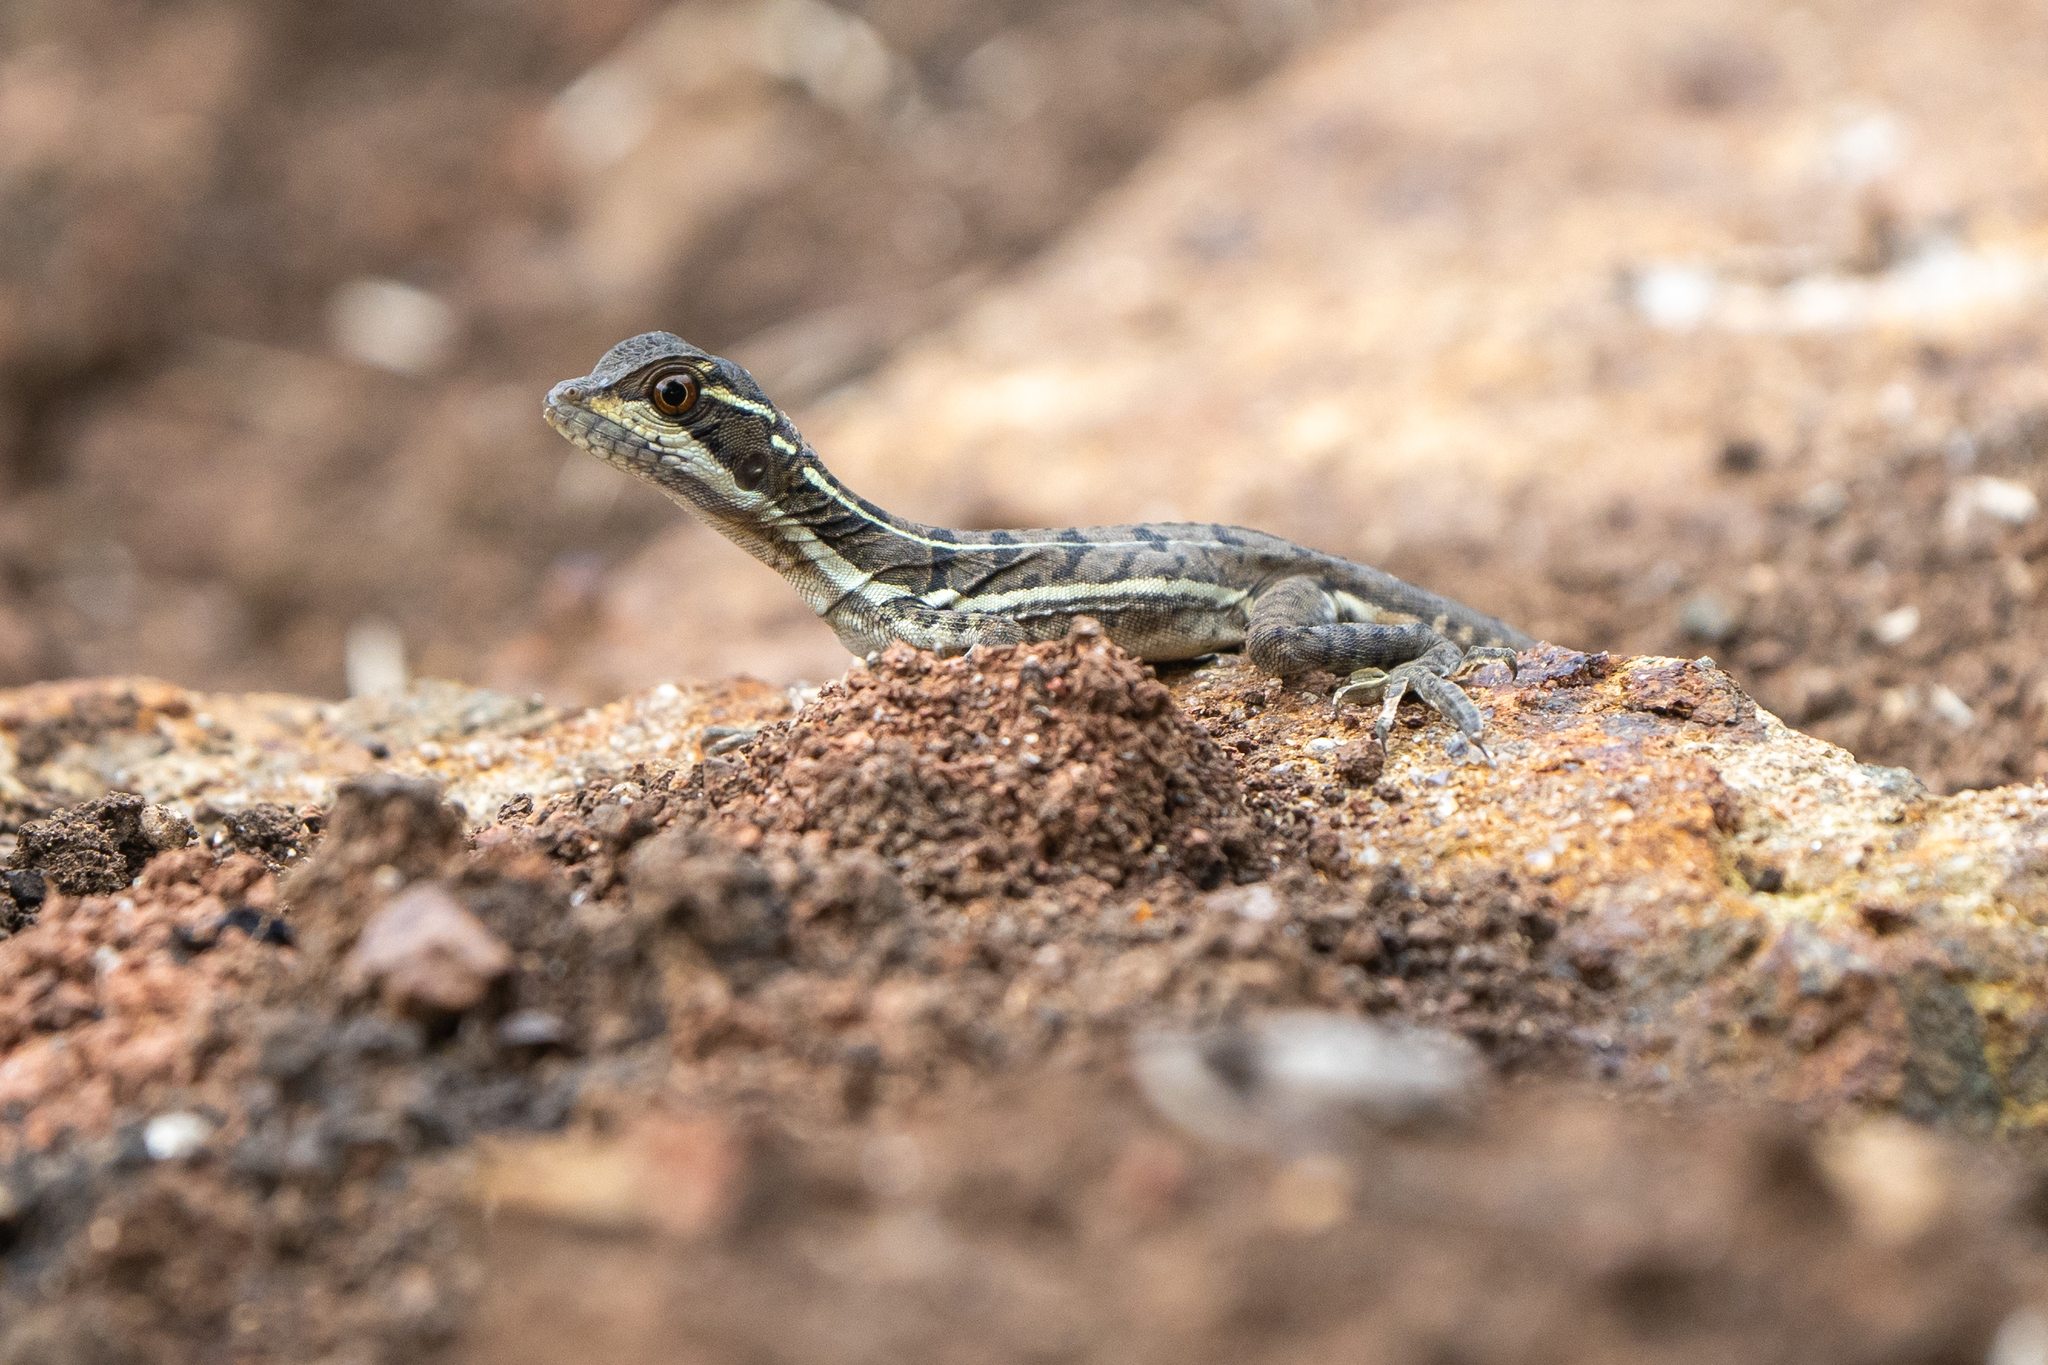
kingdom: Animalia
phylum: Chordata
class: Squamata
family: Corytophanidae
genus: Basiliscus
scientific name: Basiliscus basiliscus
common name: Common basilisk
